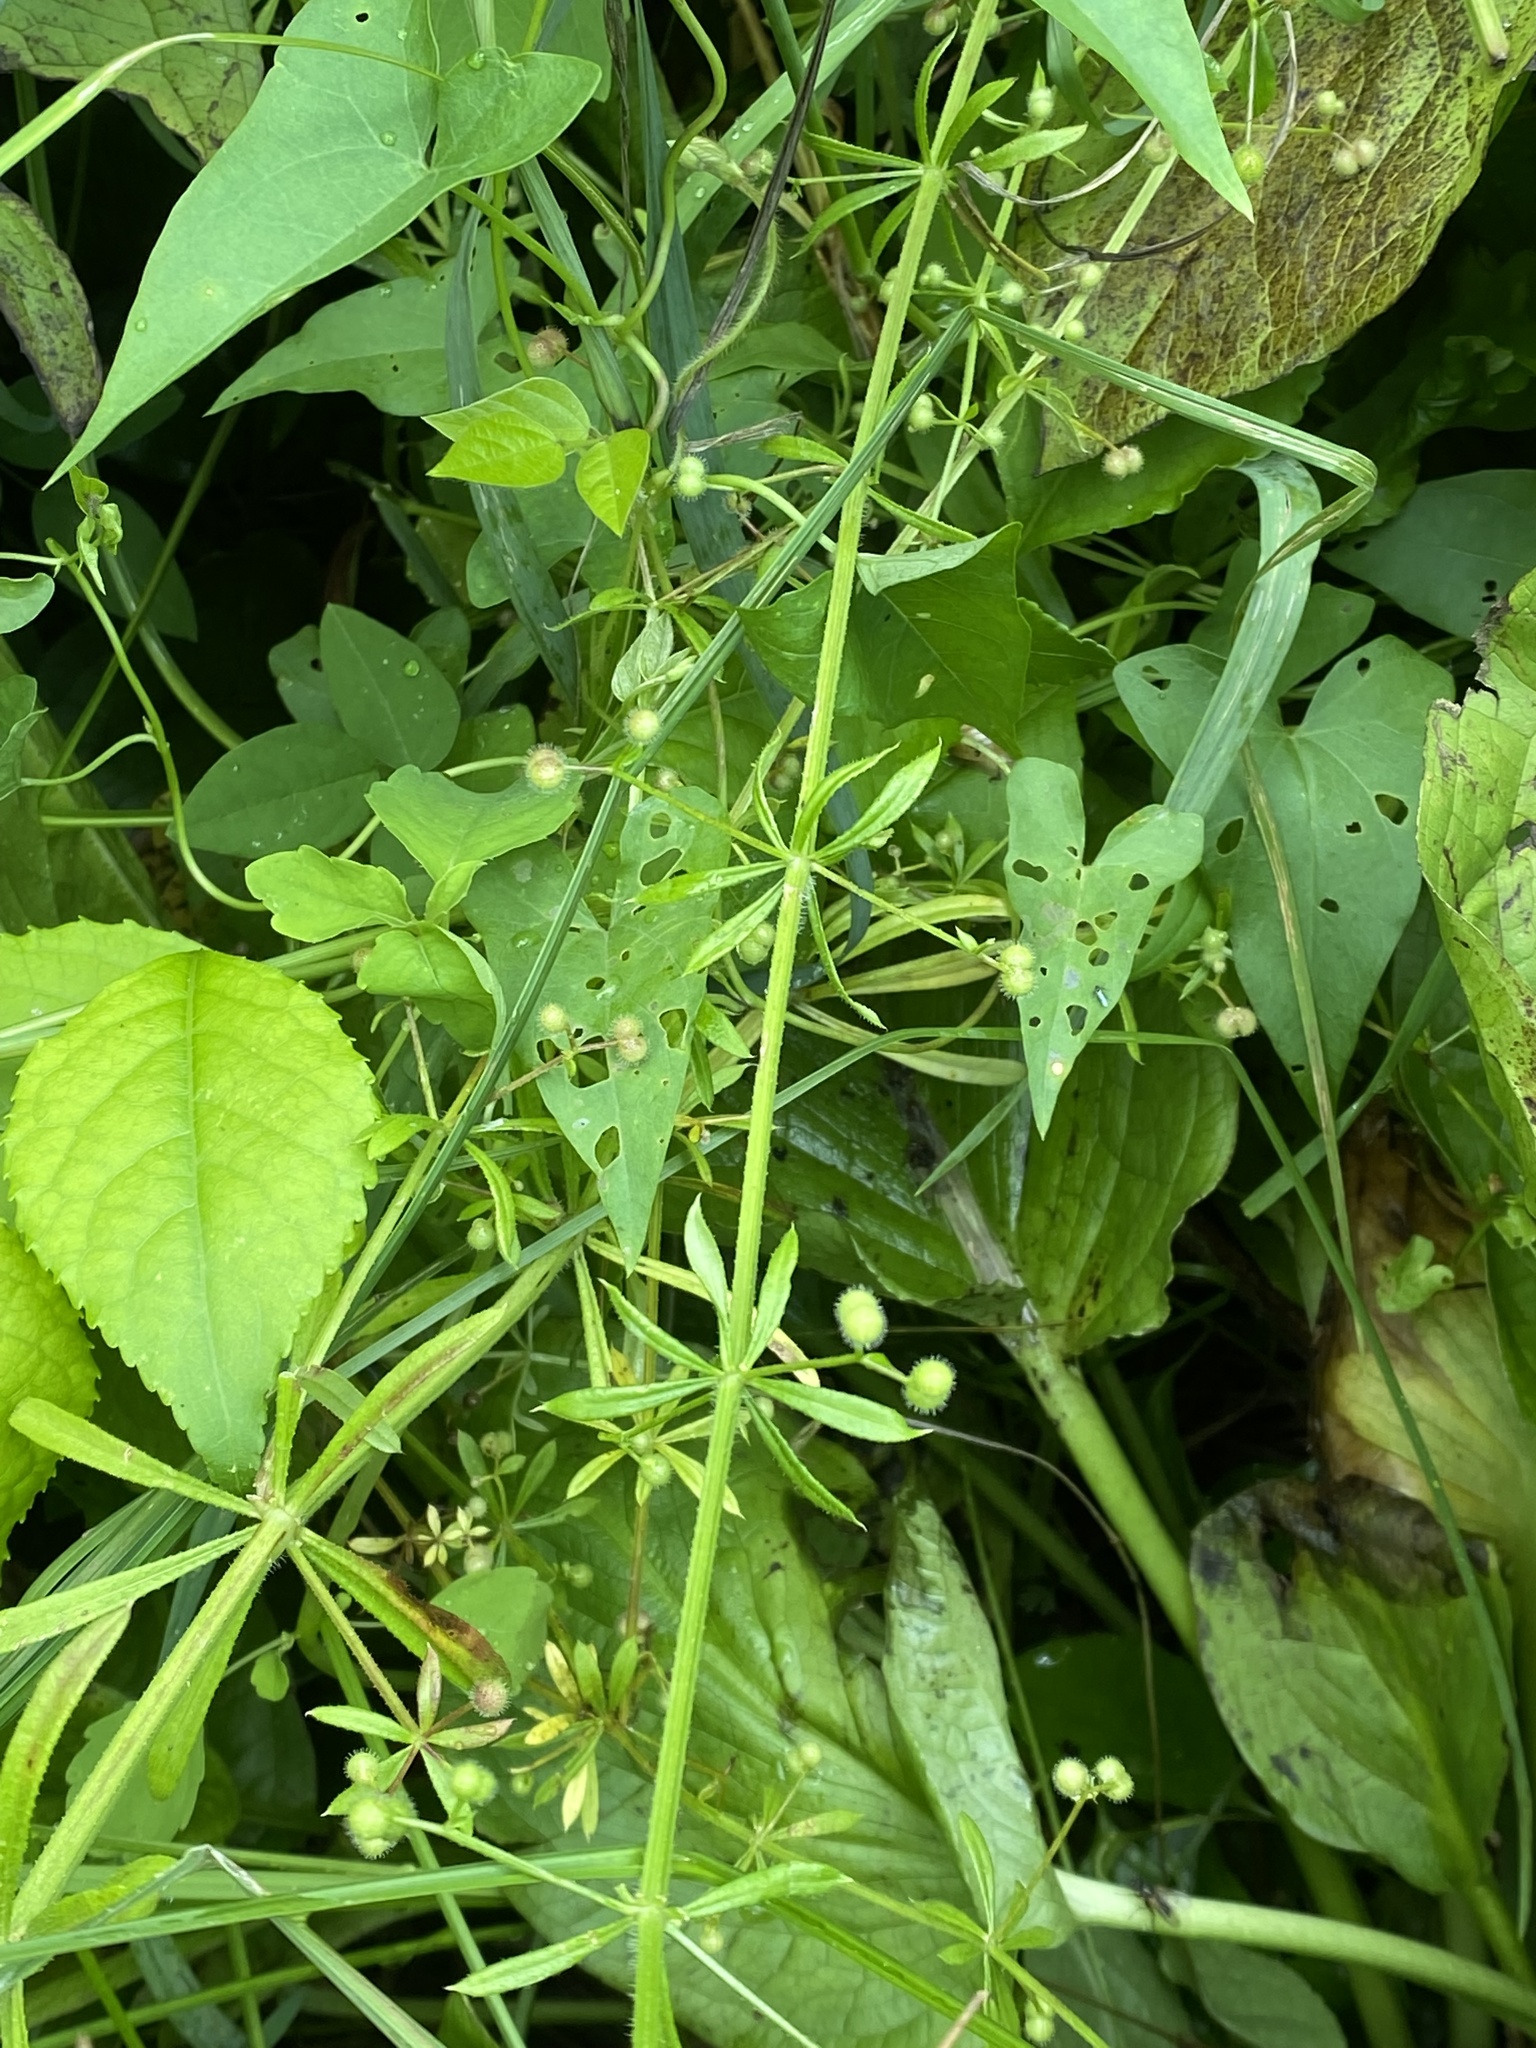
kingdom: Plantae
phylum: Tracheophyta
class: Magnoliopsida
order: Gentianales
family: Rubiaceae
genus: Galium
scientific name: Galium aparine
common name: Cleavers
